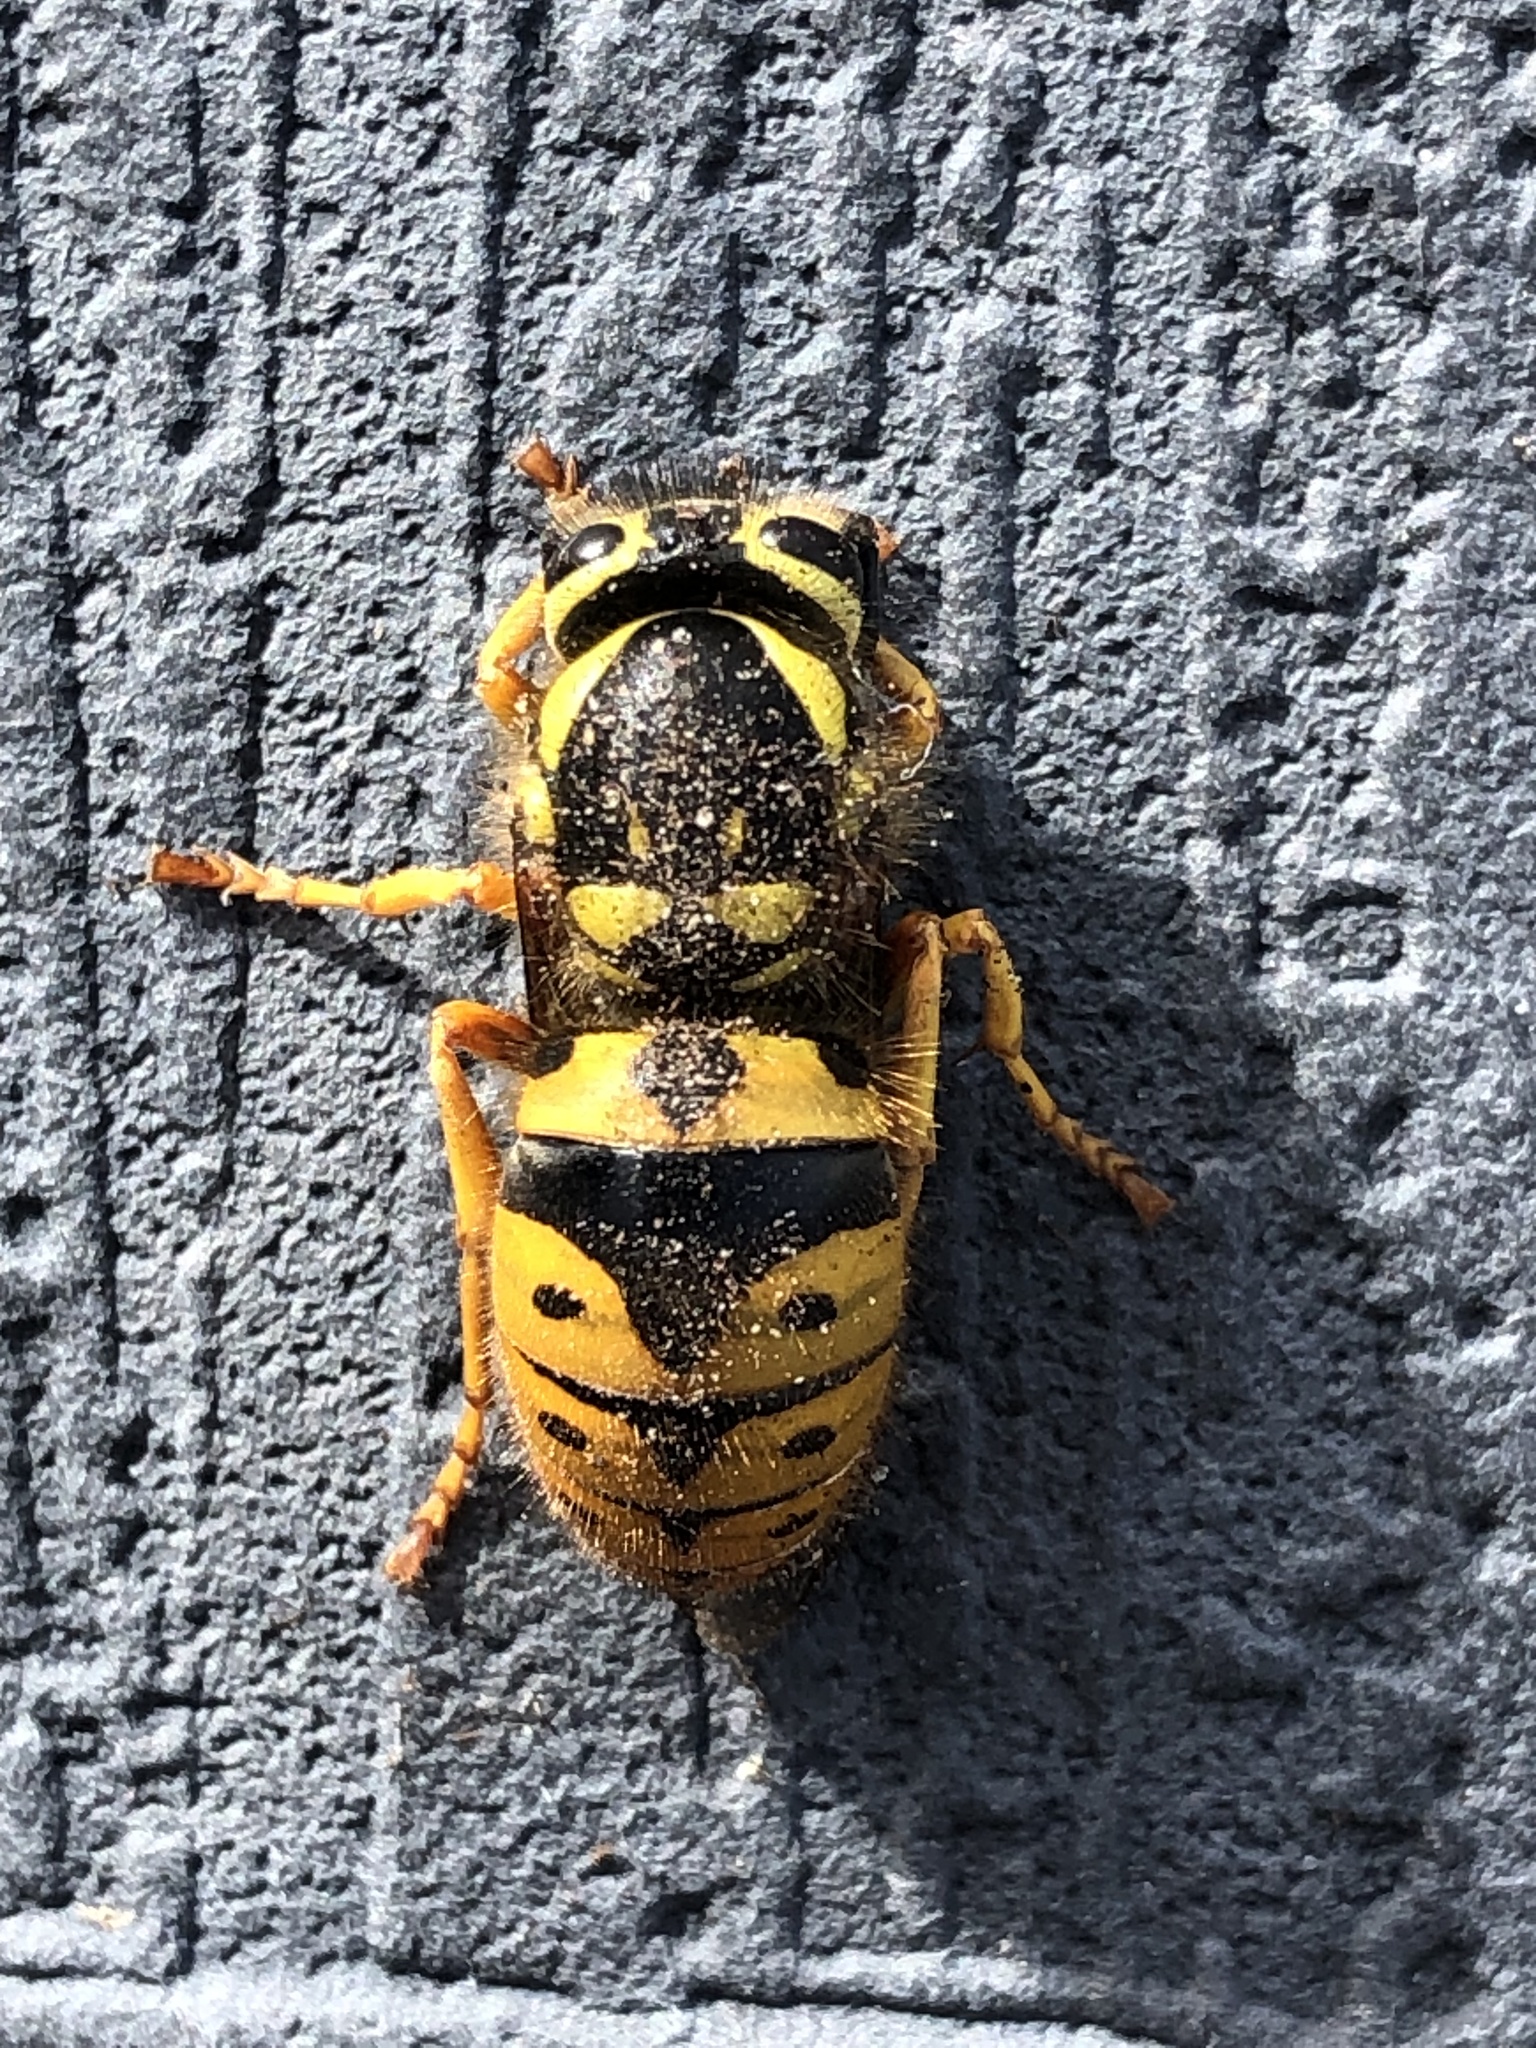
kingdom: Animalia
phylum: Arthropoda
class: Insecta
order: Hymenoptera
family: Vespidae
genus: Vespula
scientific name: Vespula pensylvanica
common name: Western yellowjacket
